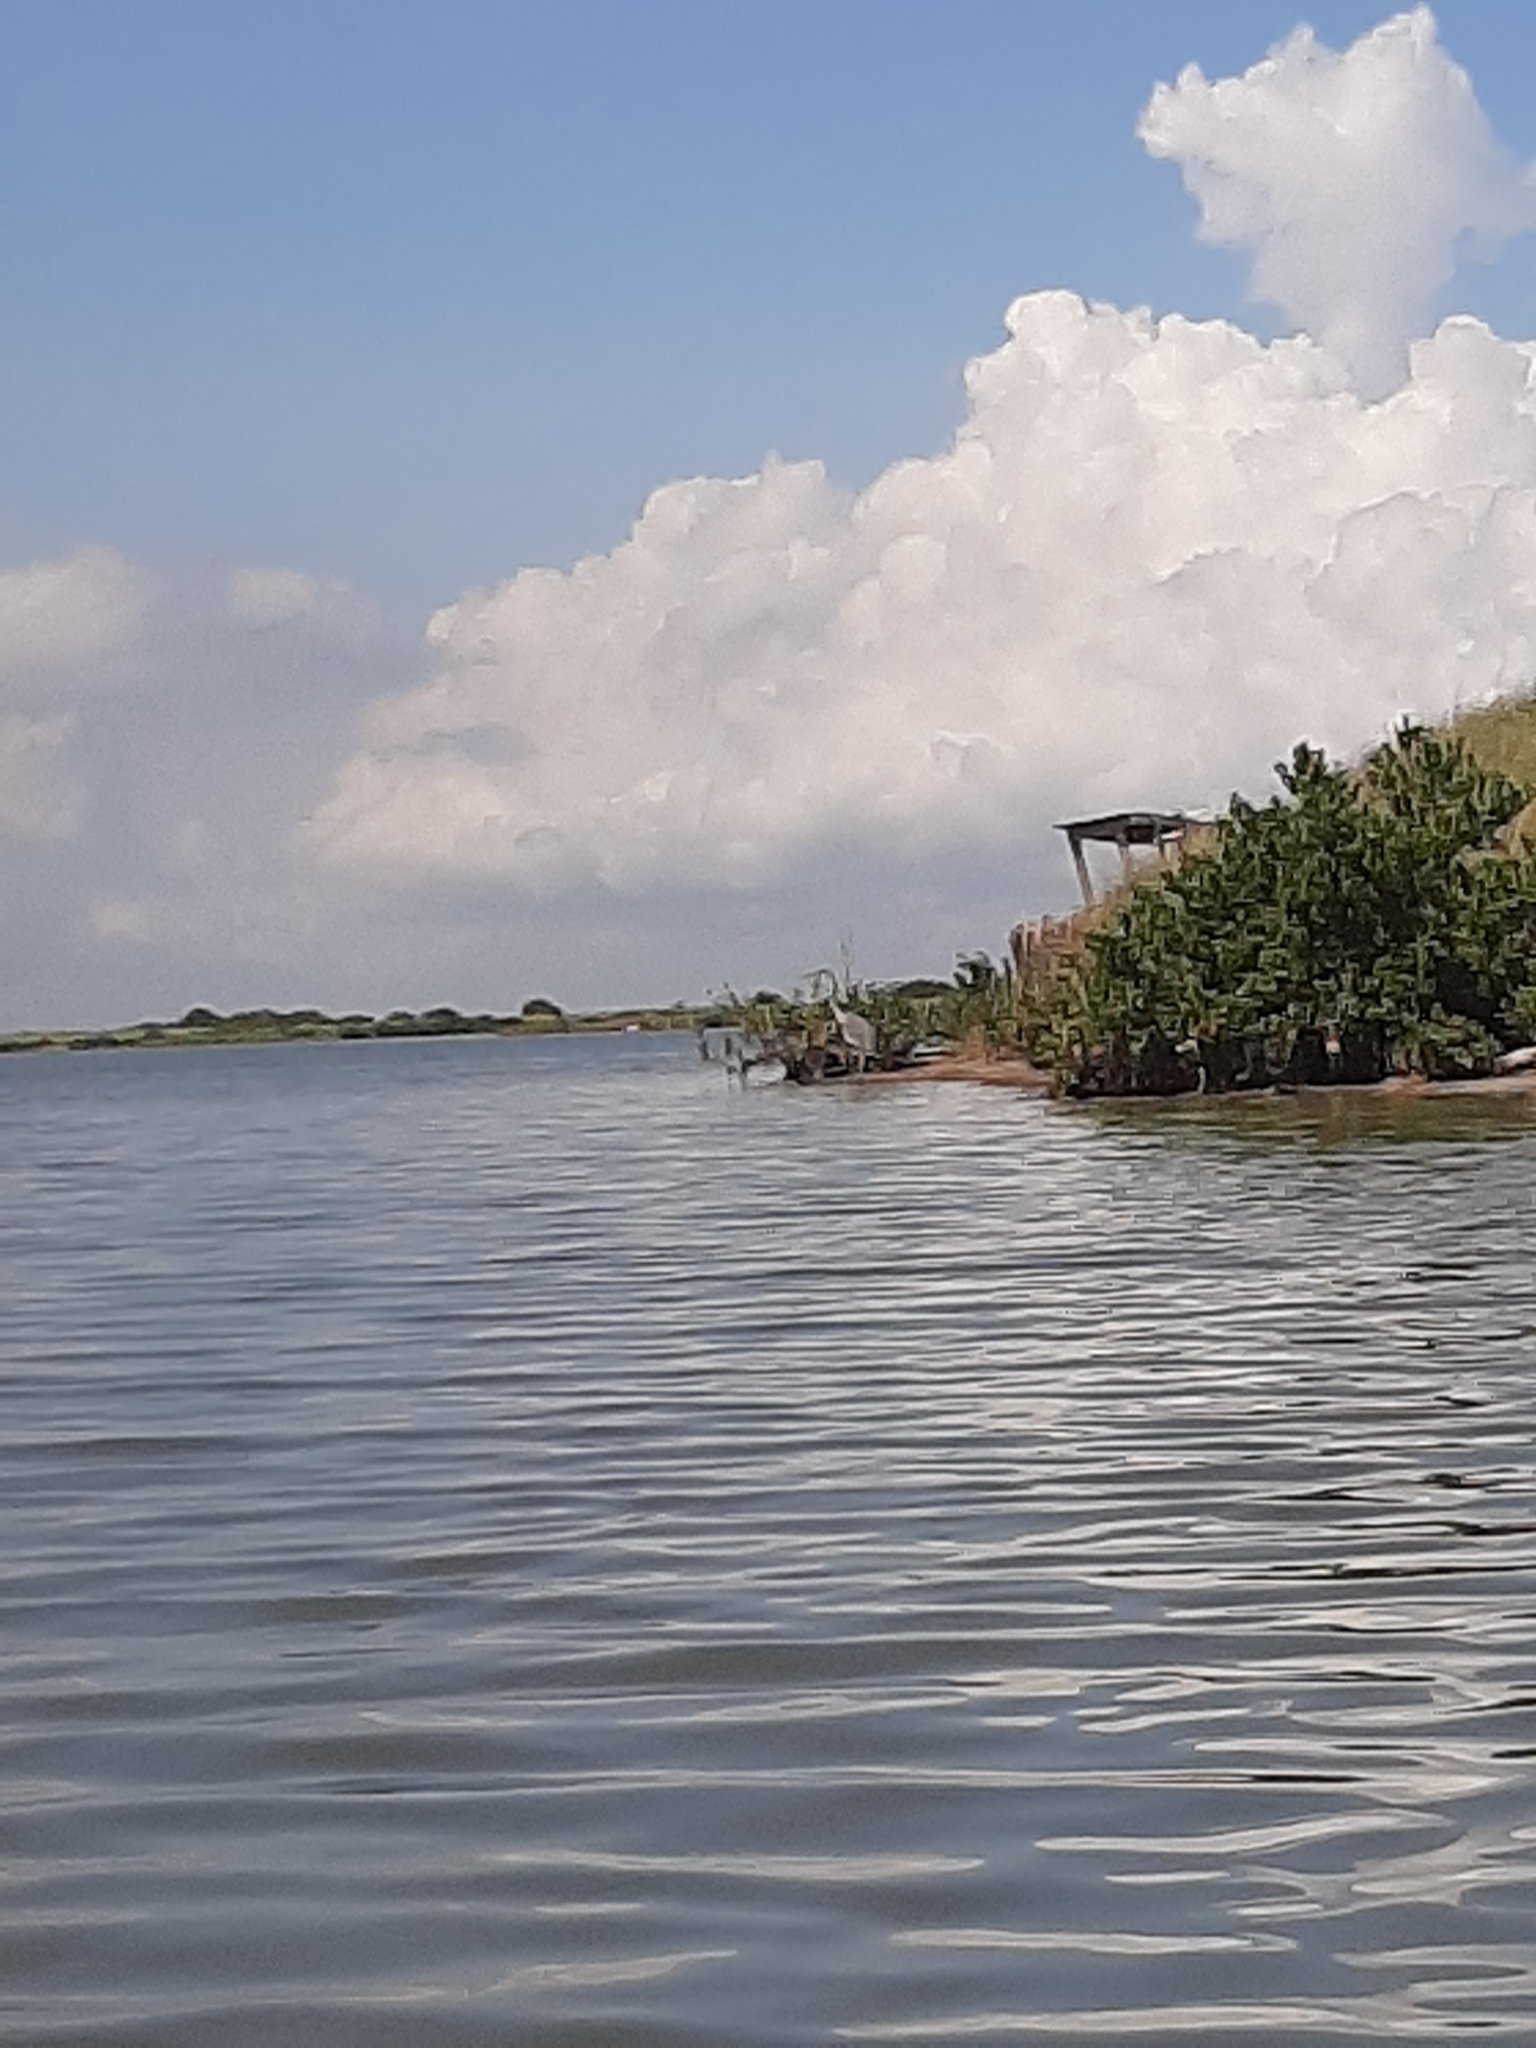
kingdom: Animalia
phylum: Chordata
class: Aves
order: Pelecaniformes
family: Ardeidae
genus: Ardea
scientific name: Ardea herodias
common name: Great blue heron
